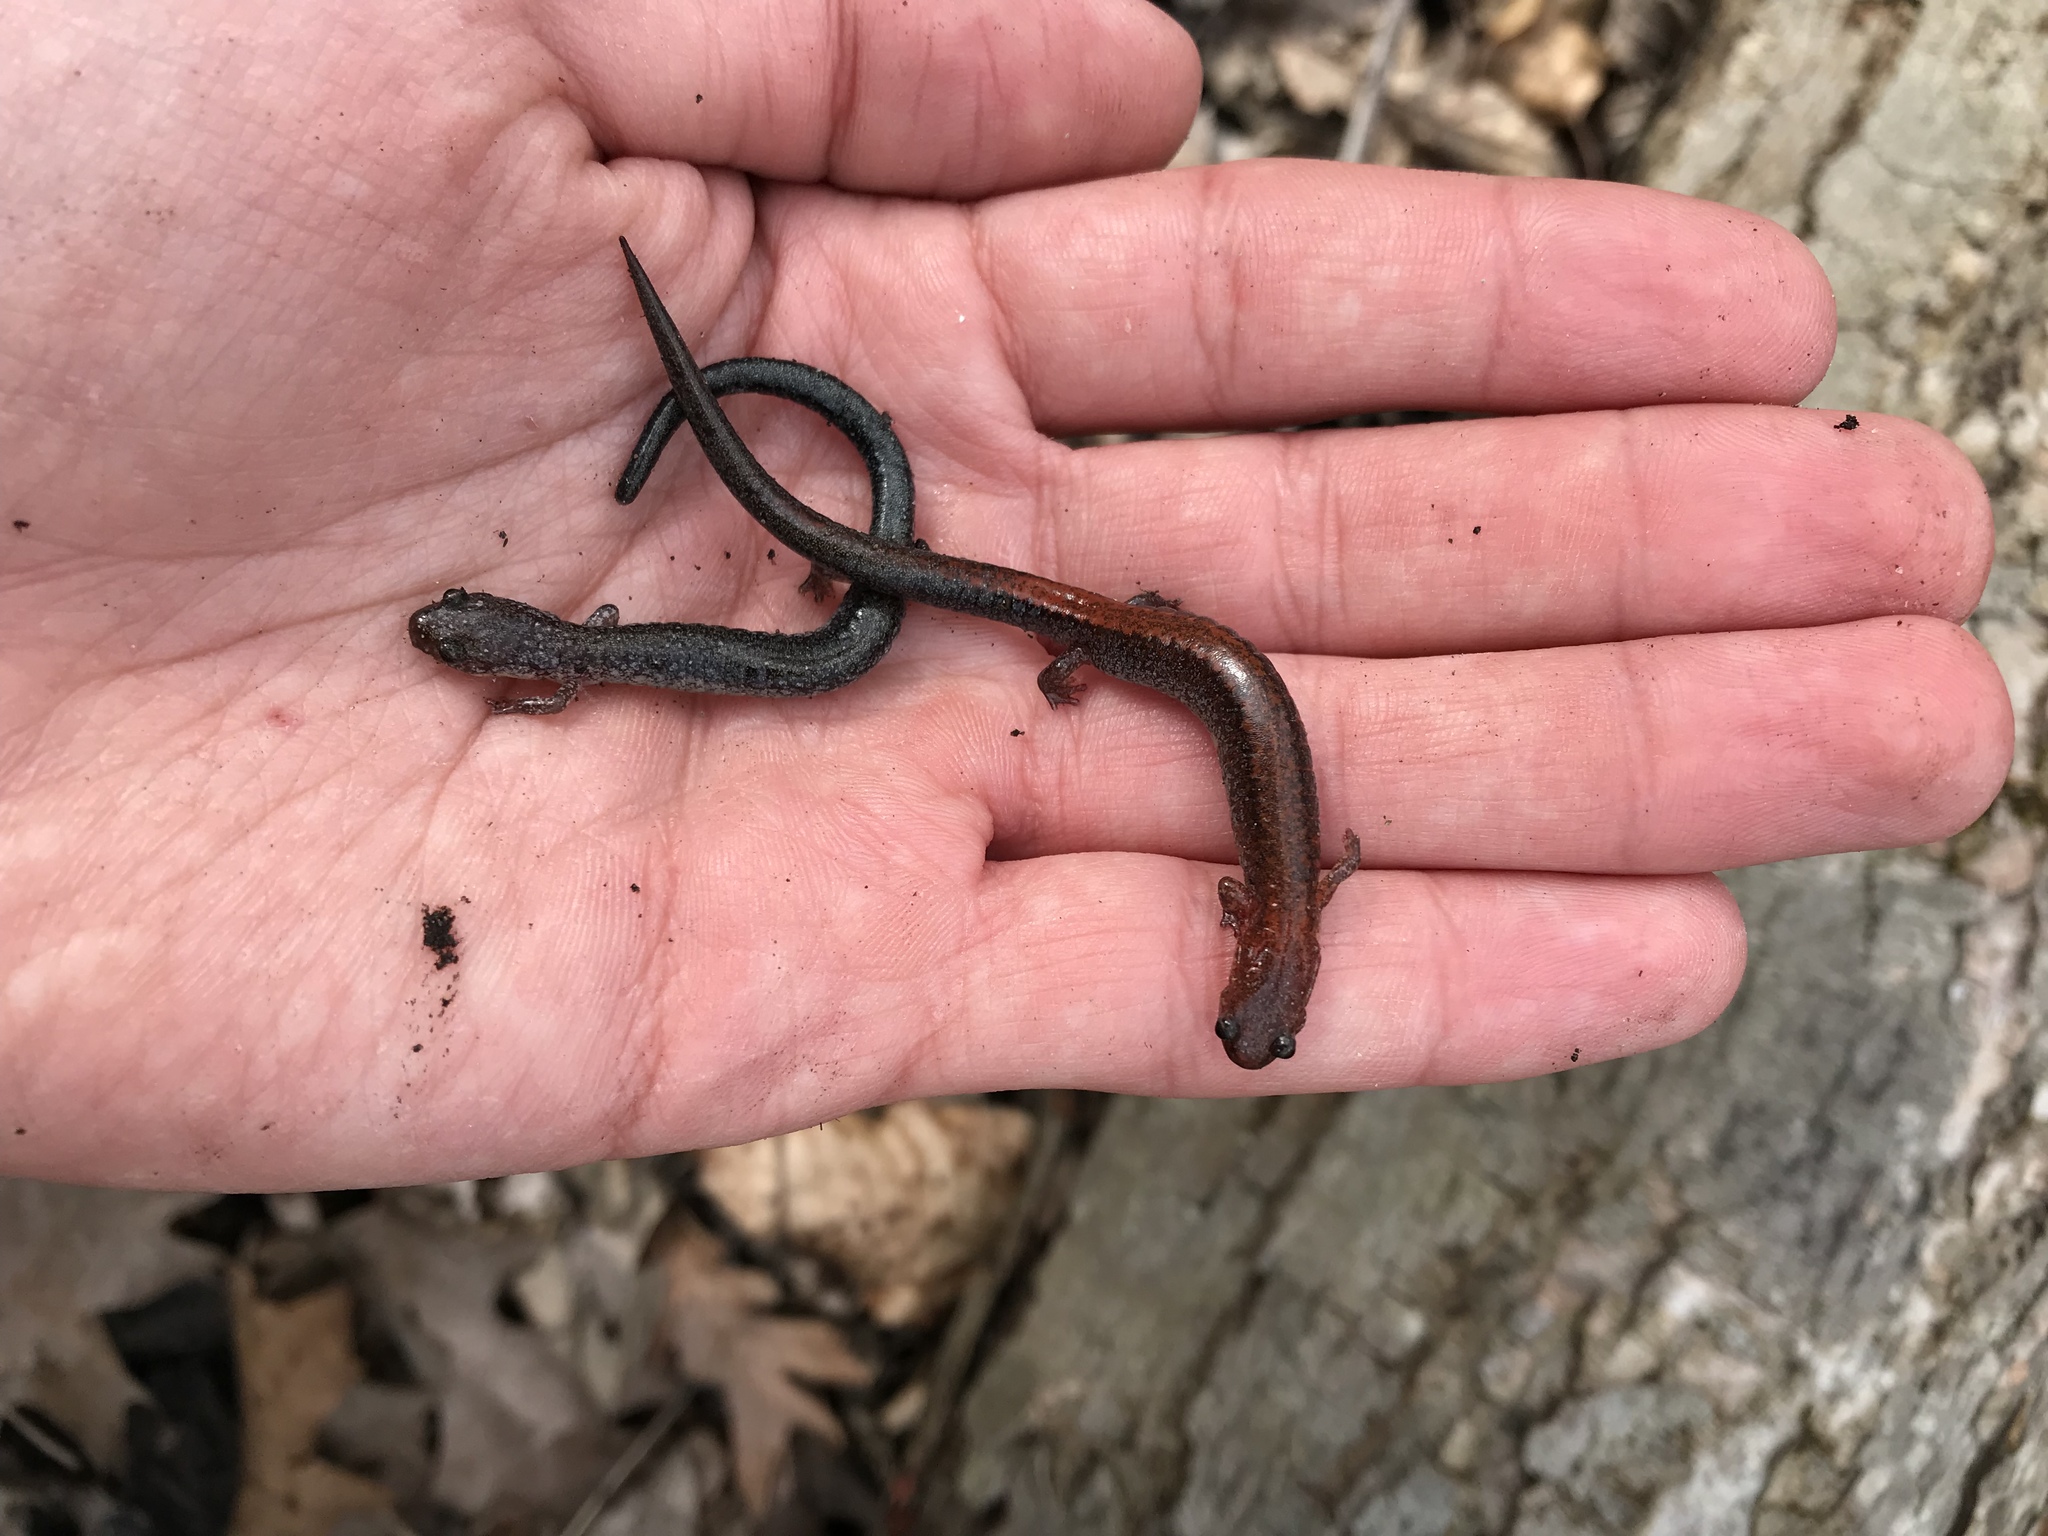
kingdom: Animalia
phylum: Chordata
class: Amphibia
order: Caudata
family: Plethodontidae
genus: Plethodon
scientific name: Plethodon cinereus
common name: Redback salamander
